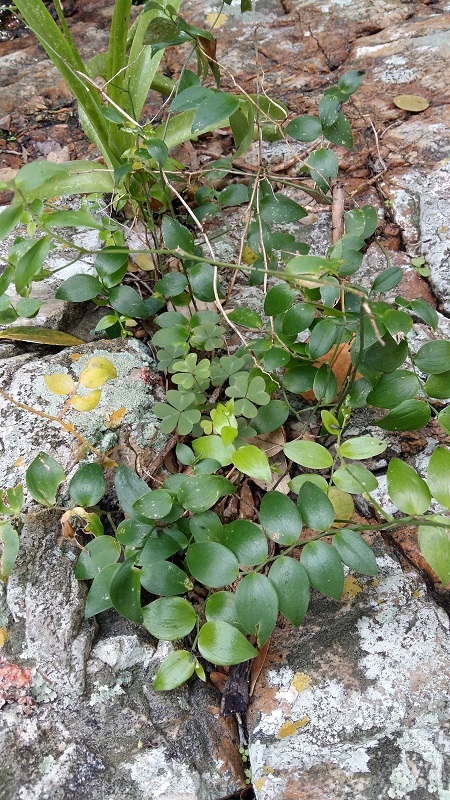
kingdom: Plantae
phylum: Tracheophyta
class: Liliopsida
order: Asparagales
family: Asparagaceae
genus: Asparagus
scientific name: Asparagus asparagoides
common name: African asparagus fern
